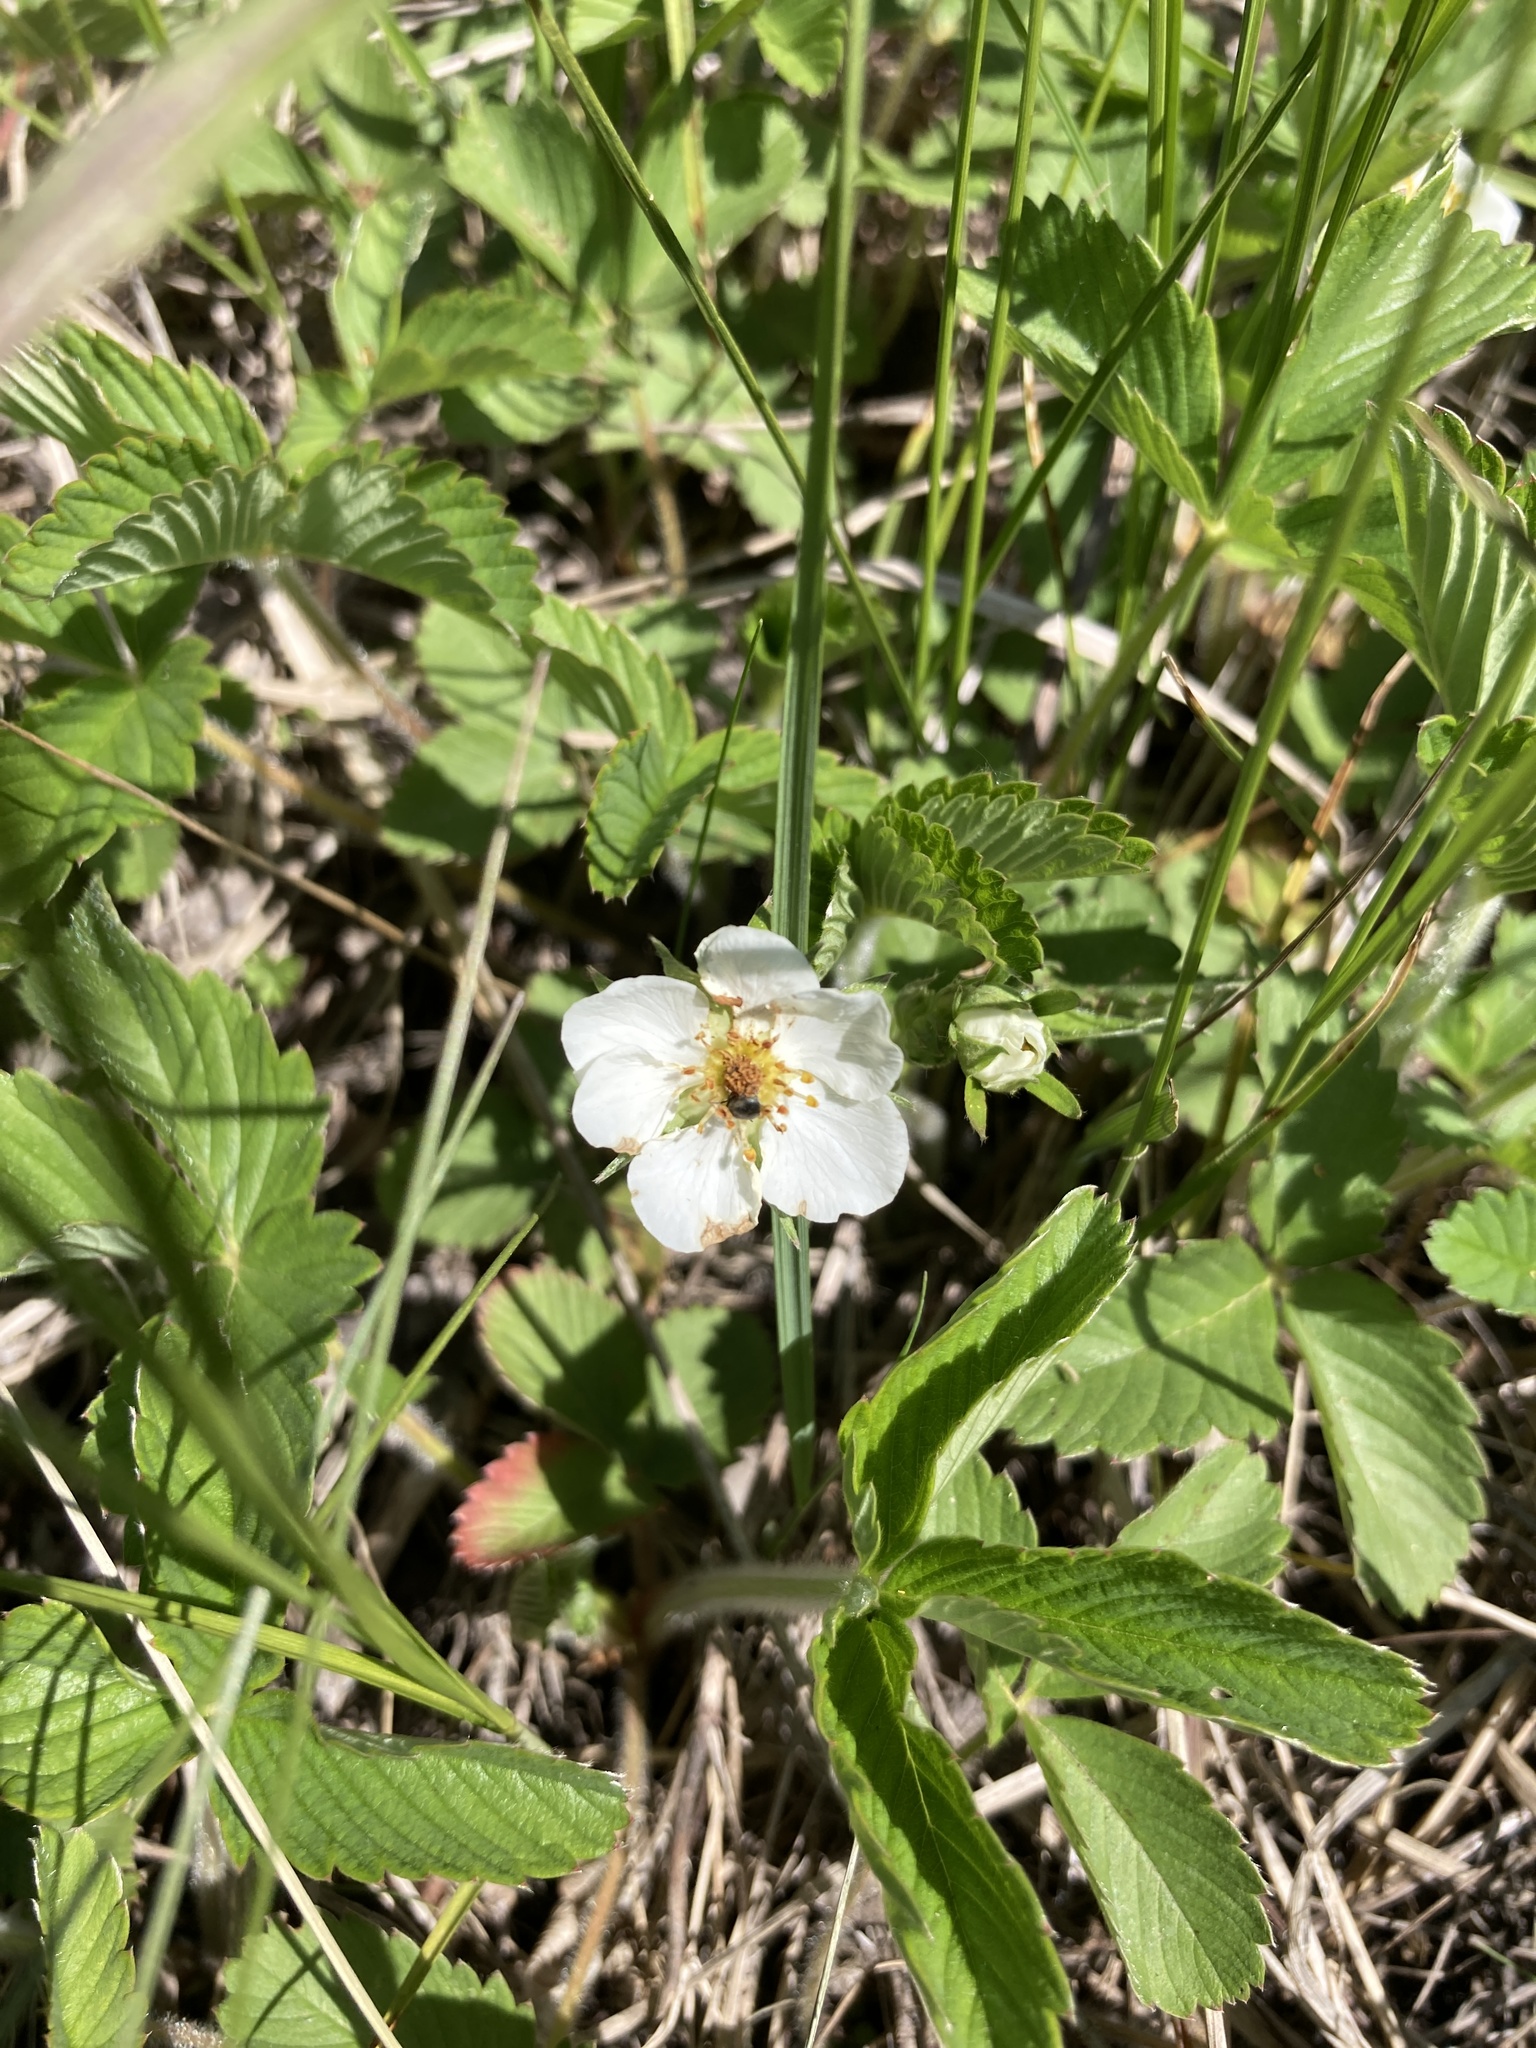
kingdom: Plantae
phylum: Tracheophyta
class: Magnoliopsida
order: Rosales
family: Rosaceae
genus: Fragaria
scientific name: Fragaria viridis
